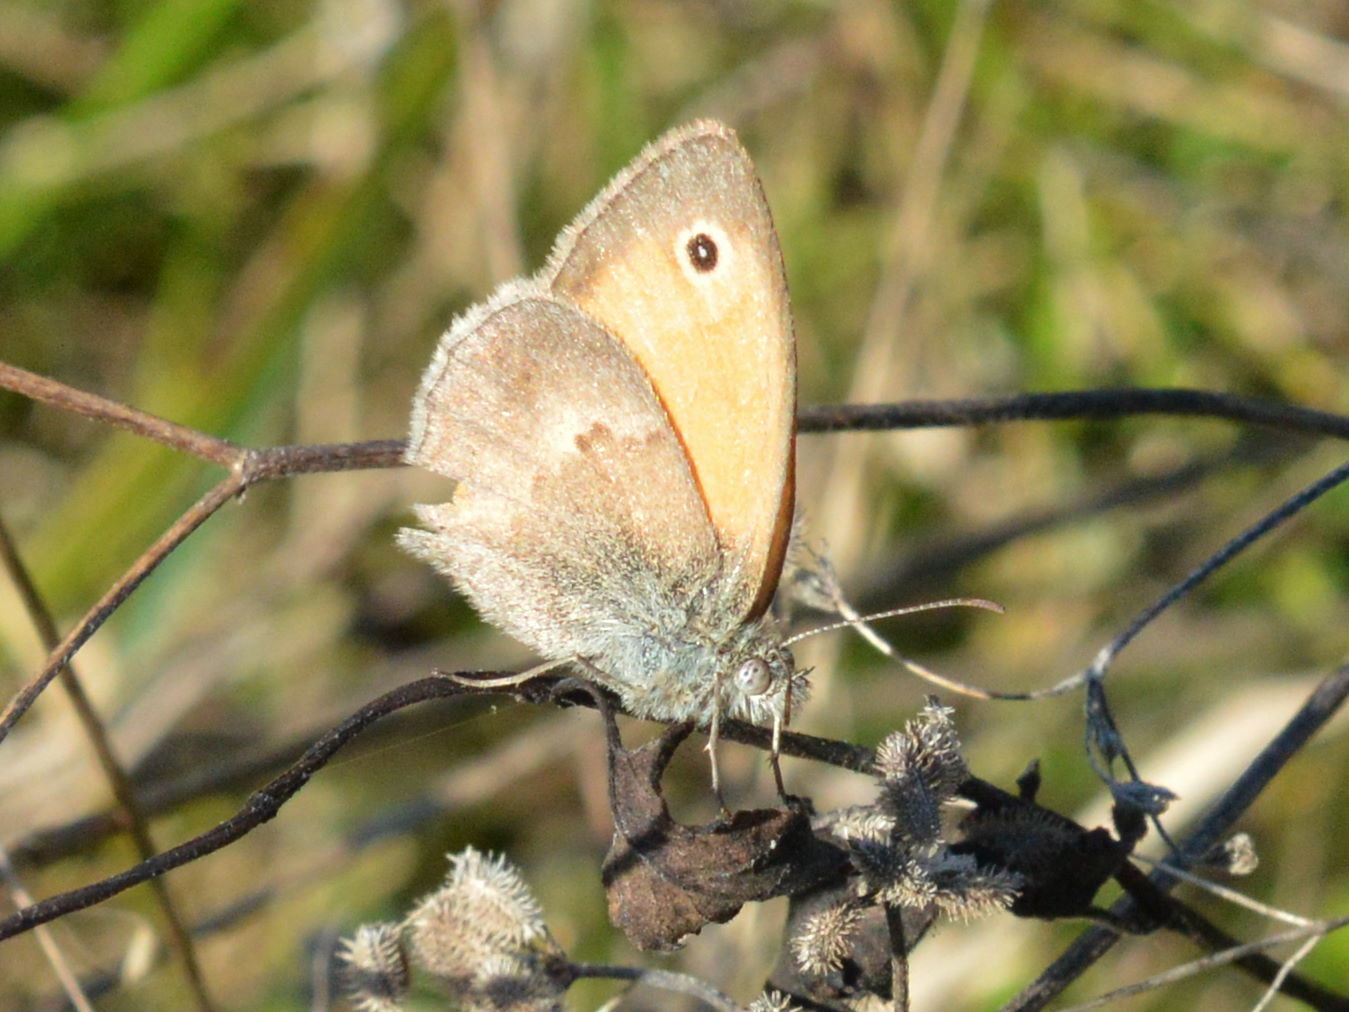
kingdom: Animalia
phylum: Arthropoda
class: Insecta
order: Lepidoptera
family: Nymphalidae
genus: Coenonympha
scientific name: Coenonympha pamphilus
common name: Small heath
